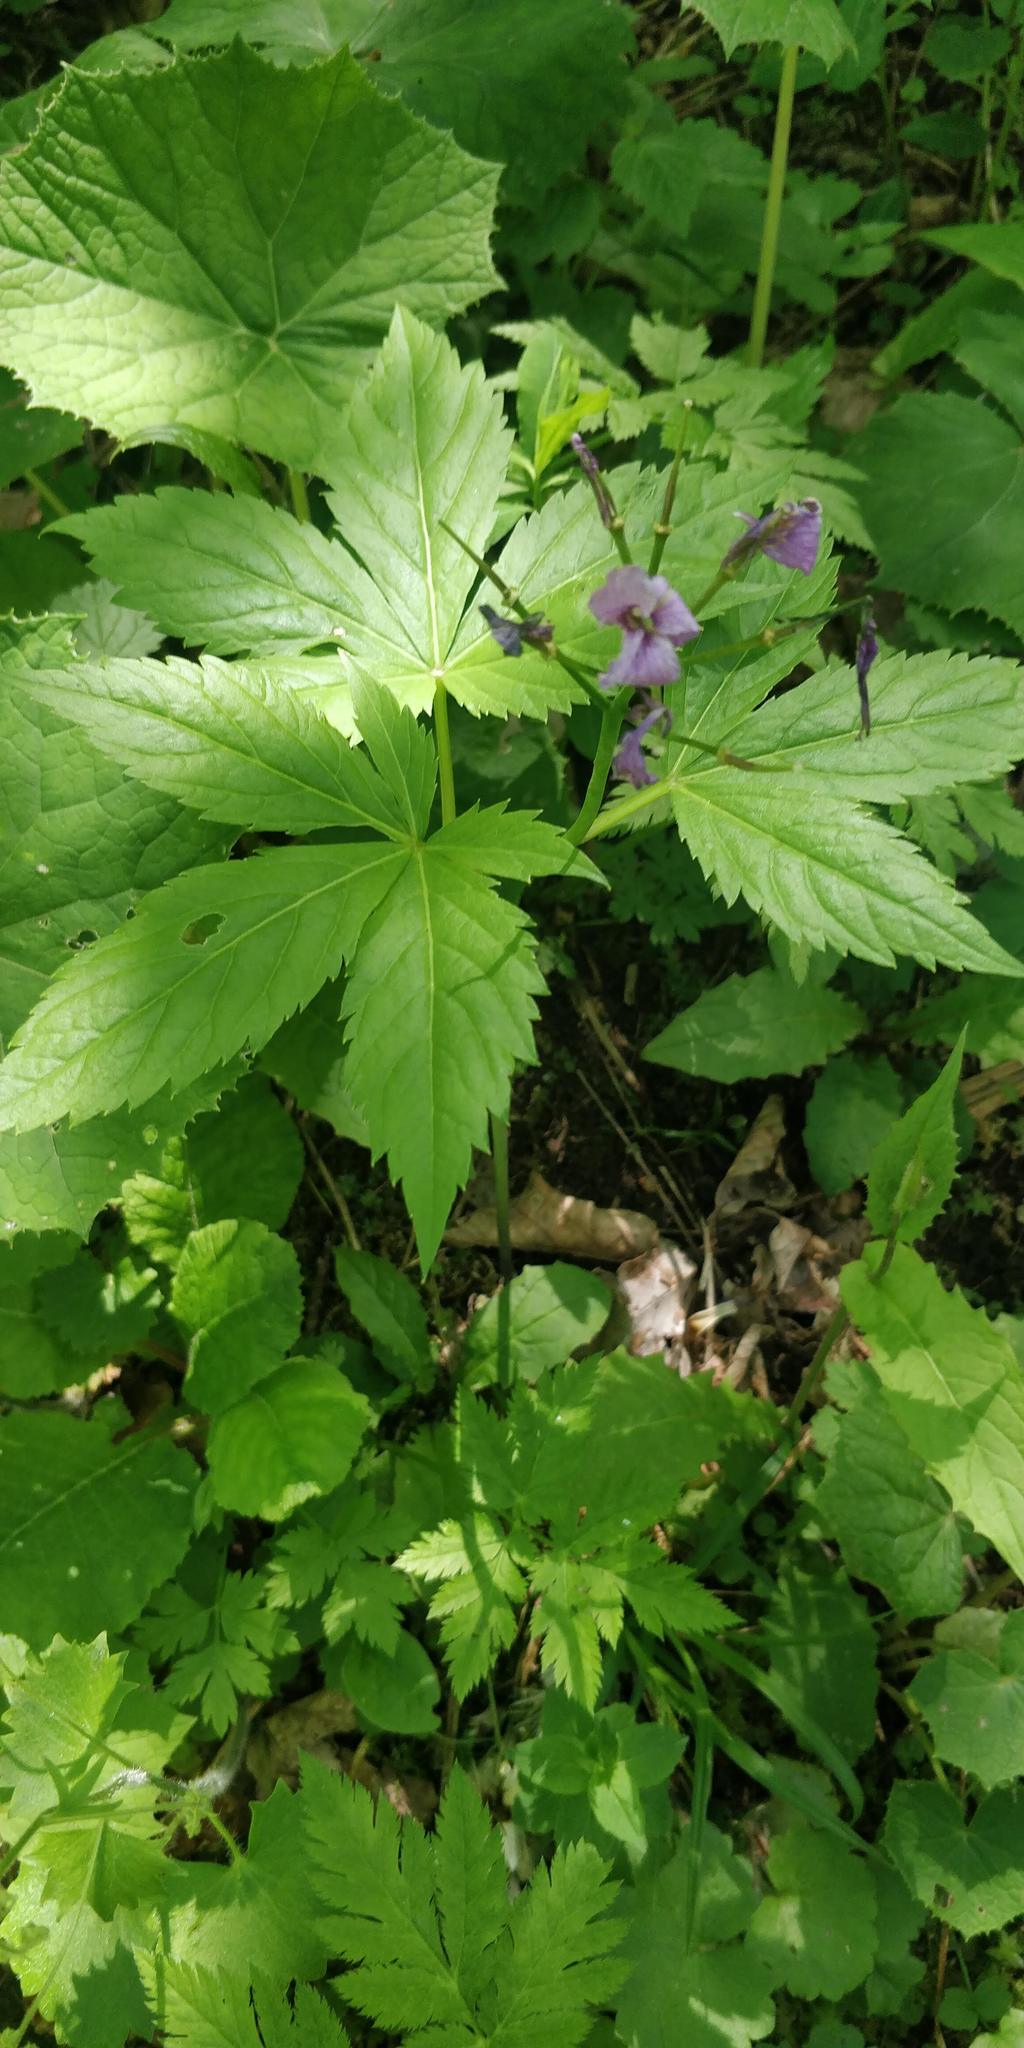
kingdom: Plantae
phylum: Tracheophyta
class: Magnoliopsida
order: Brassicales
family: Brassicaceae
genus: Cardamine
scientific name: Cardamine pentaphyllos
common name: Five-leaflet bitter-cress
